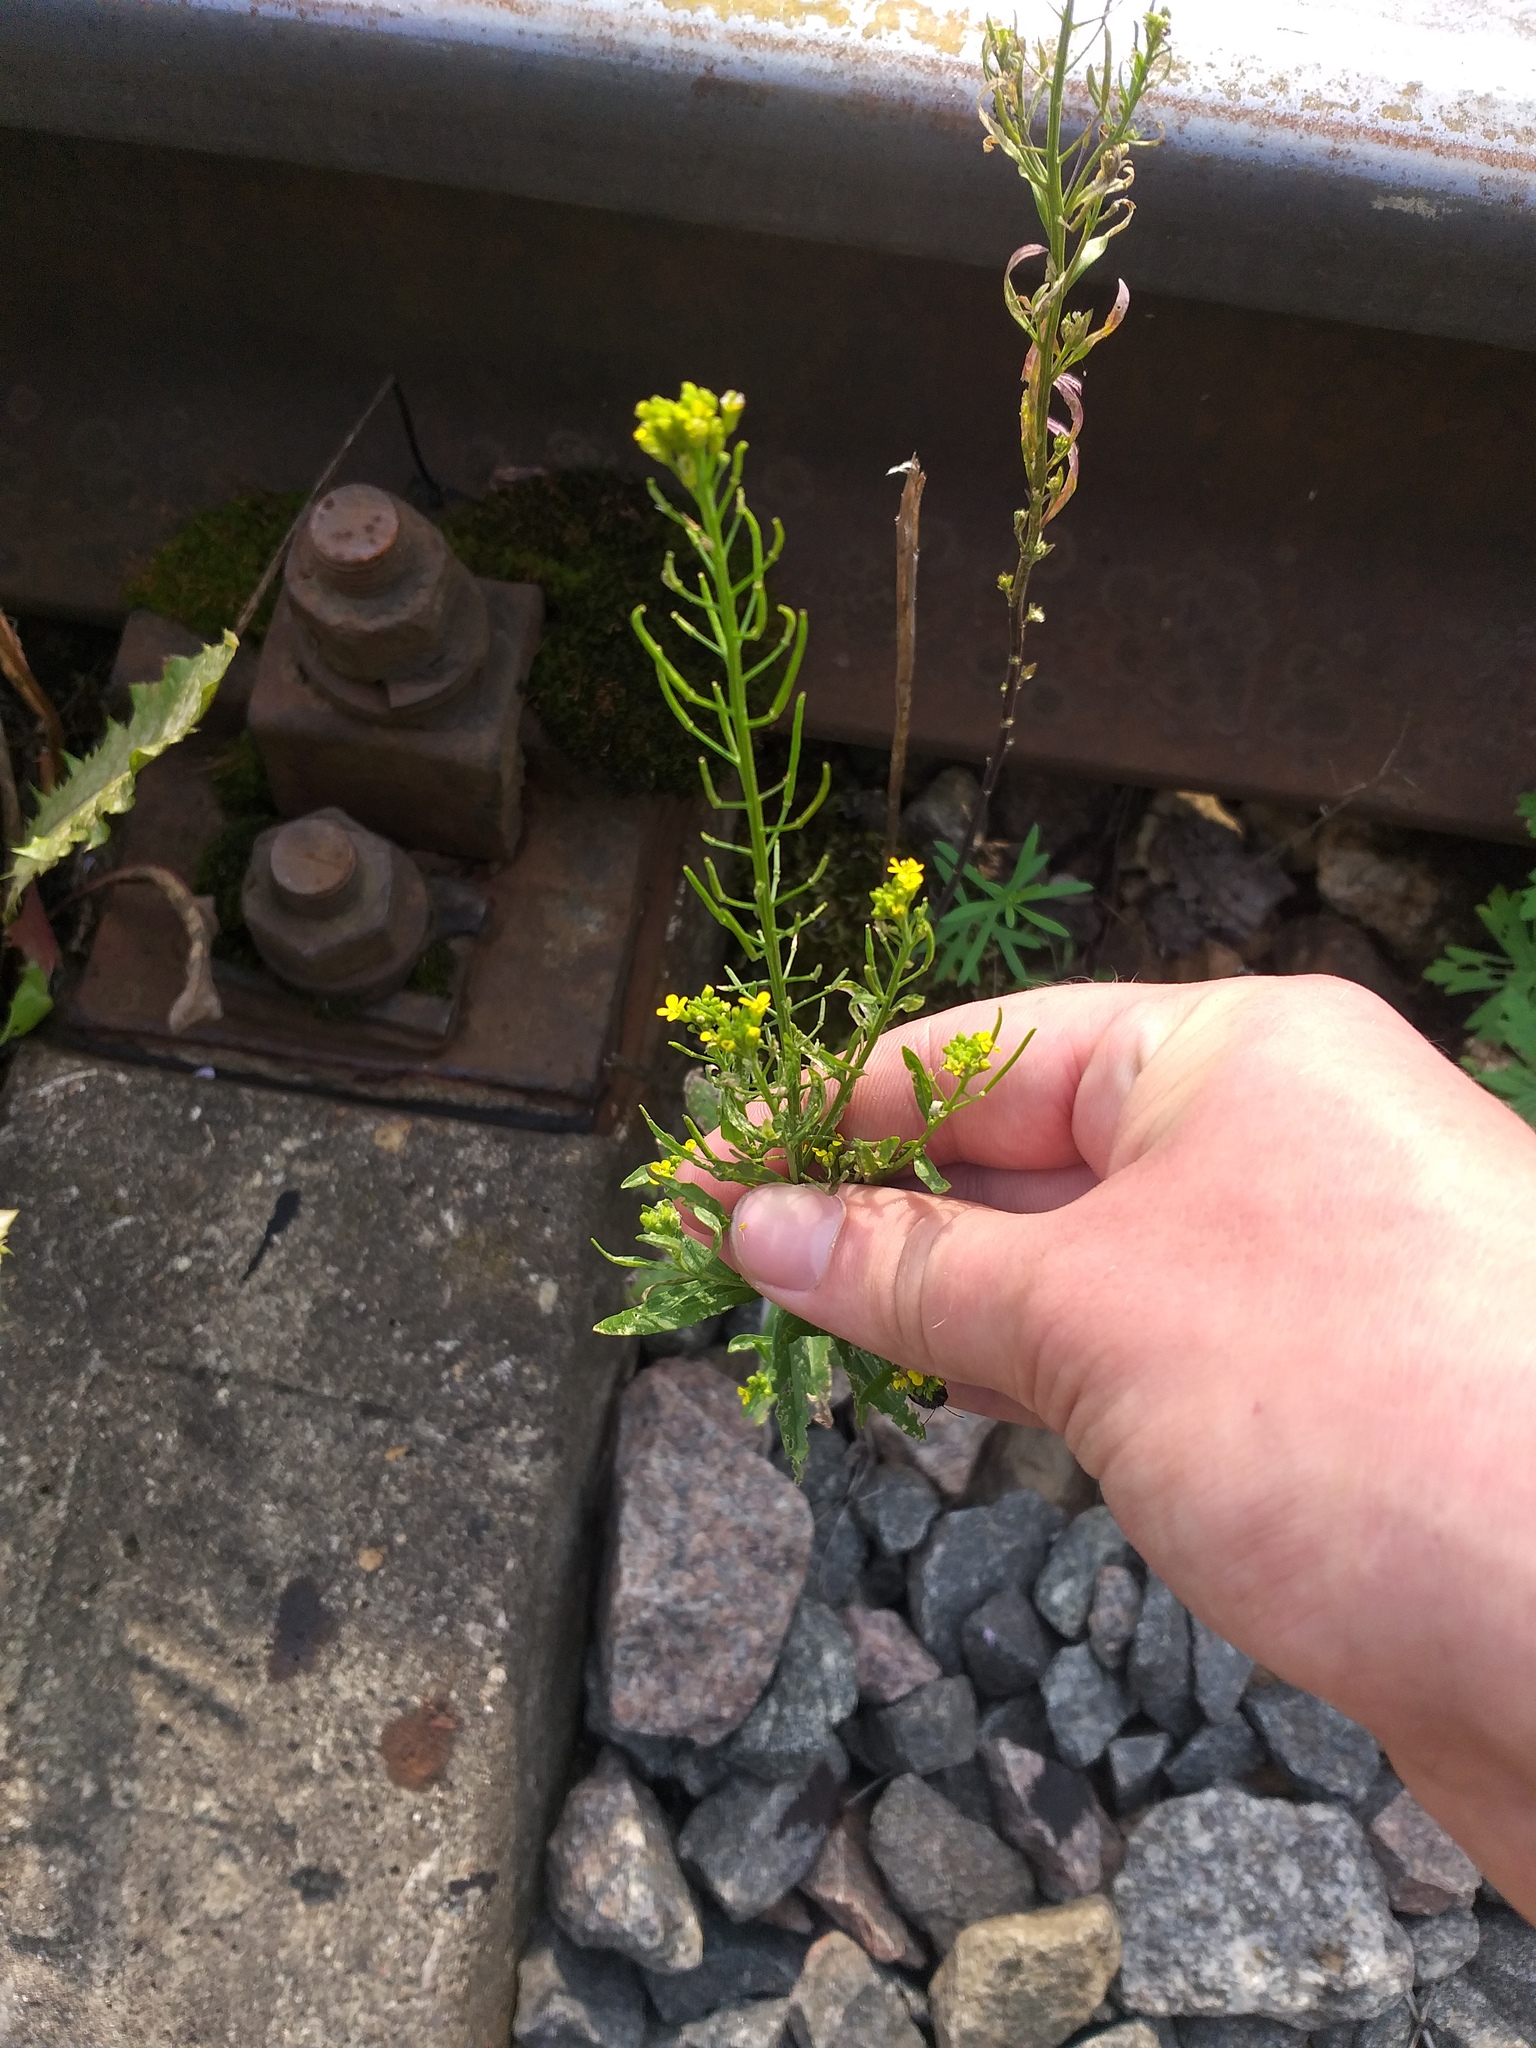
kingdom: Plantae
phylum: Tracheophyta
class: Magnoliopsida
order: Brassicales
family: Brassicaceae
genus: Erysimum
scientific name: Erysimum cheiranthoides
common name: Treacle mustard
